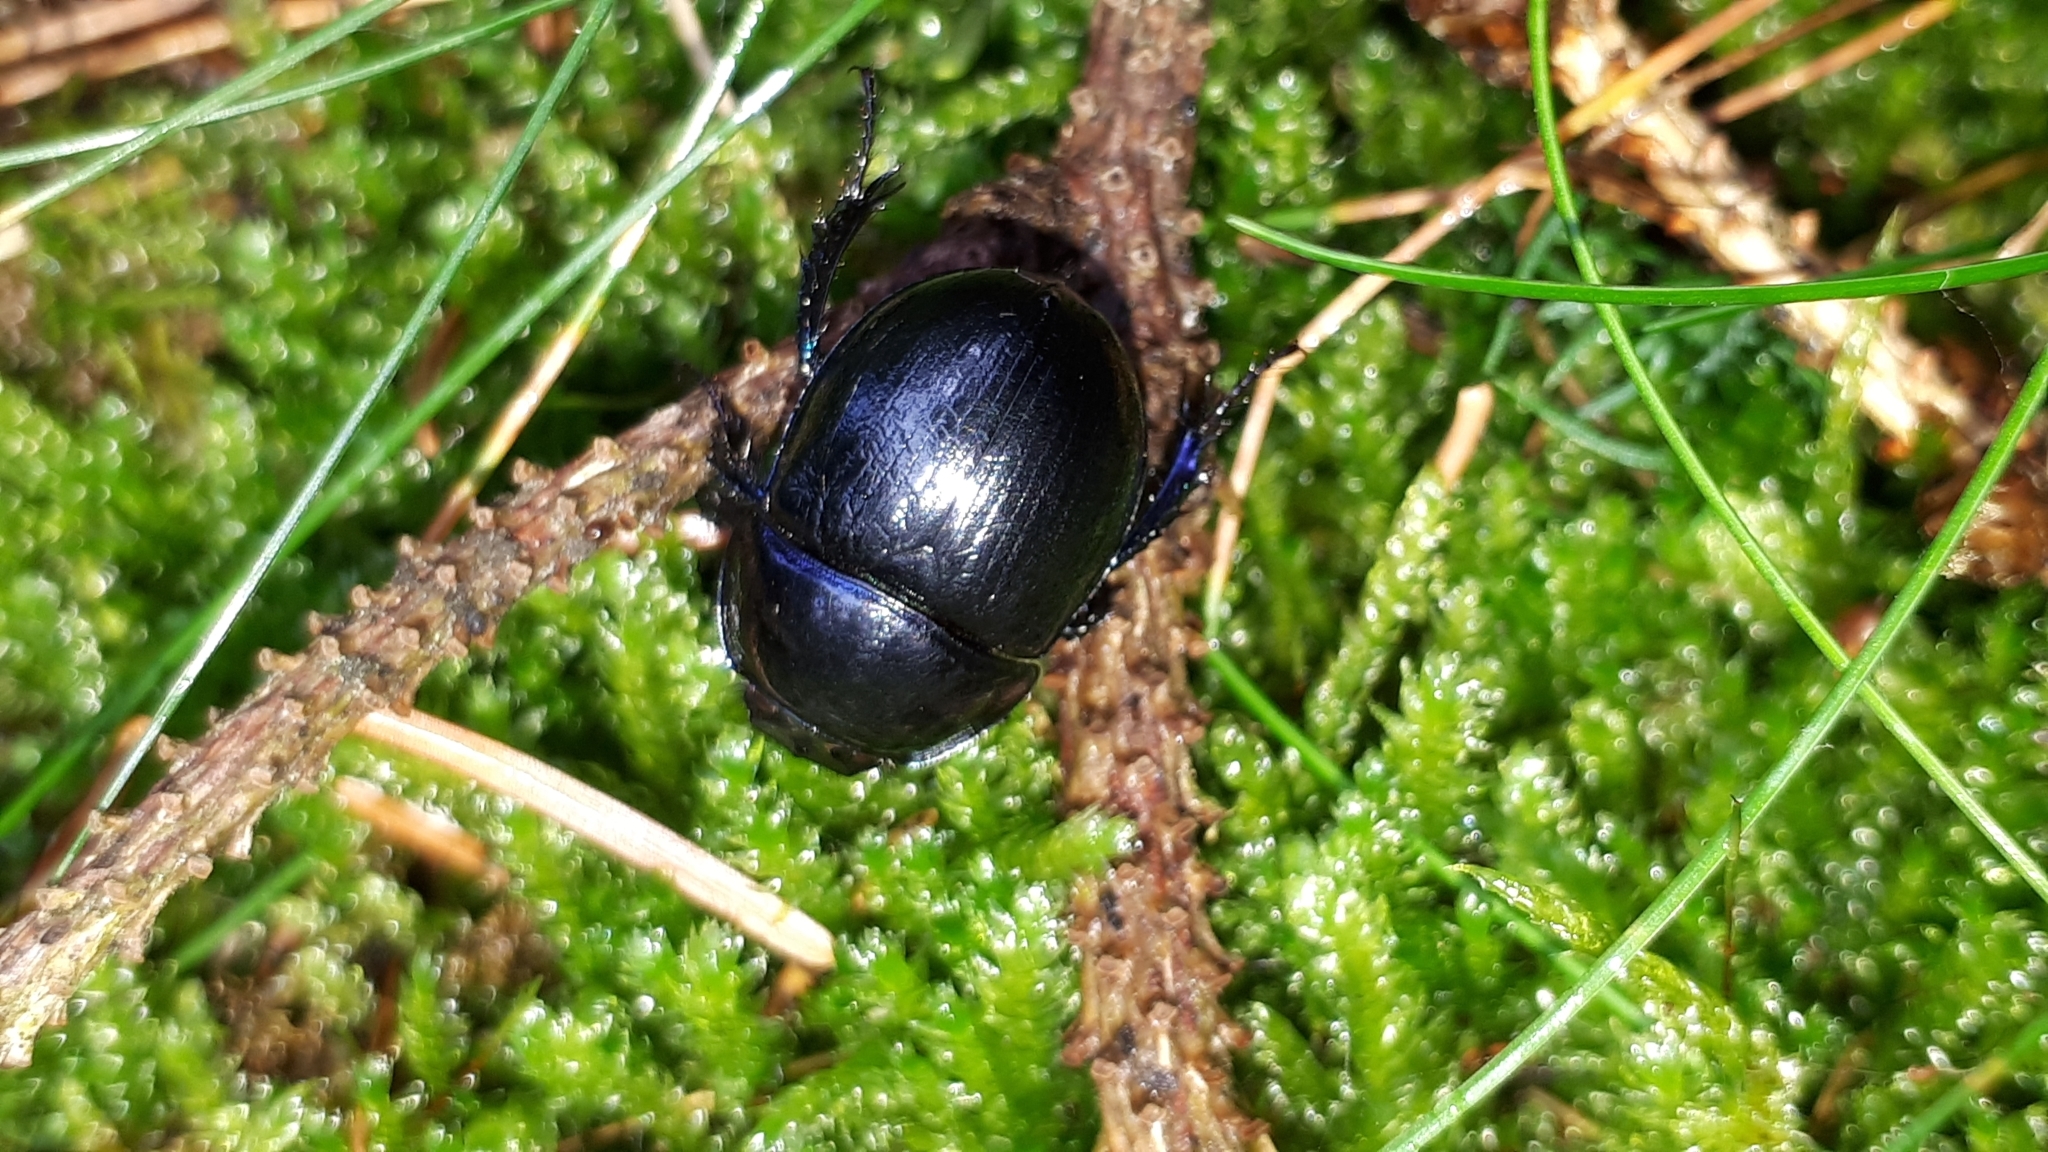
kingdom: Animalia
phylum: Arthropoda
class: Insecta
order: Coleoptera
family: Geotrupidae
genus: Anoplotrupes
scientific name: Anoplotrupes stercorosus
